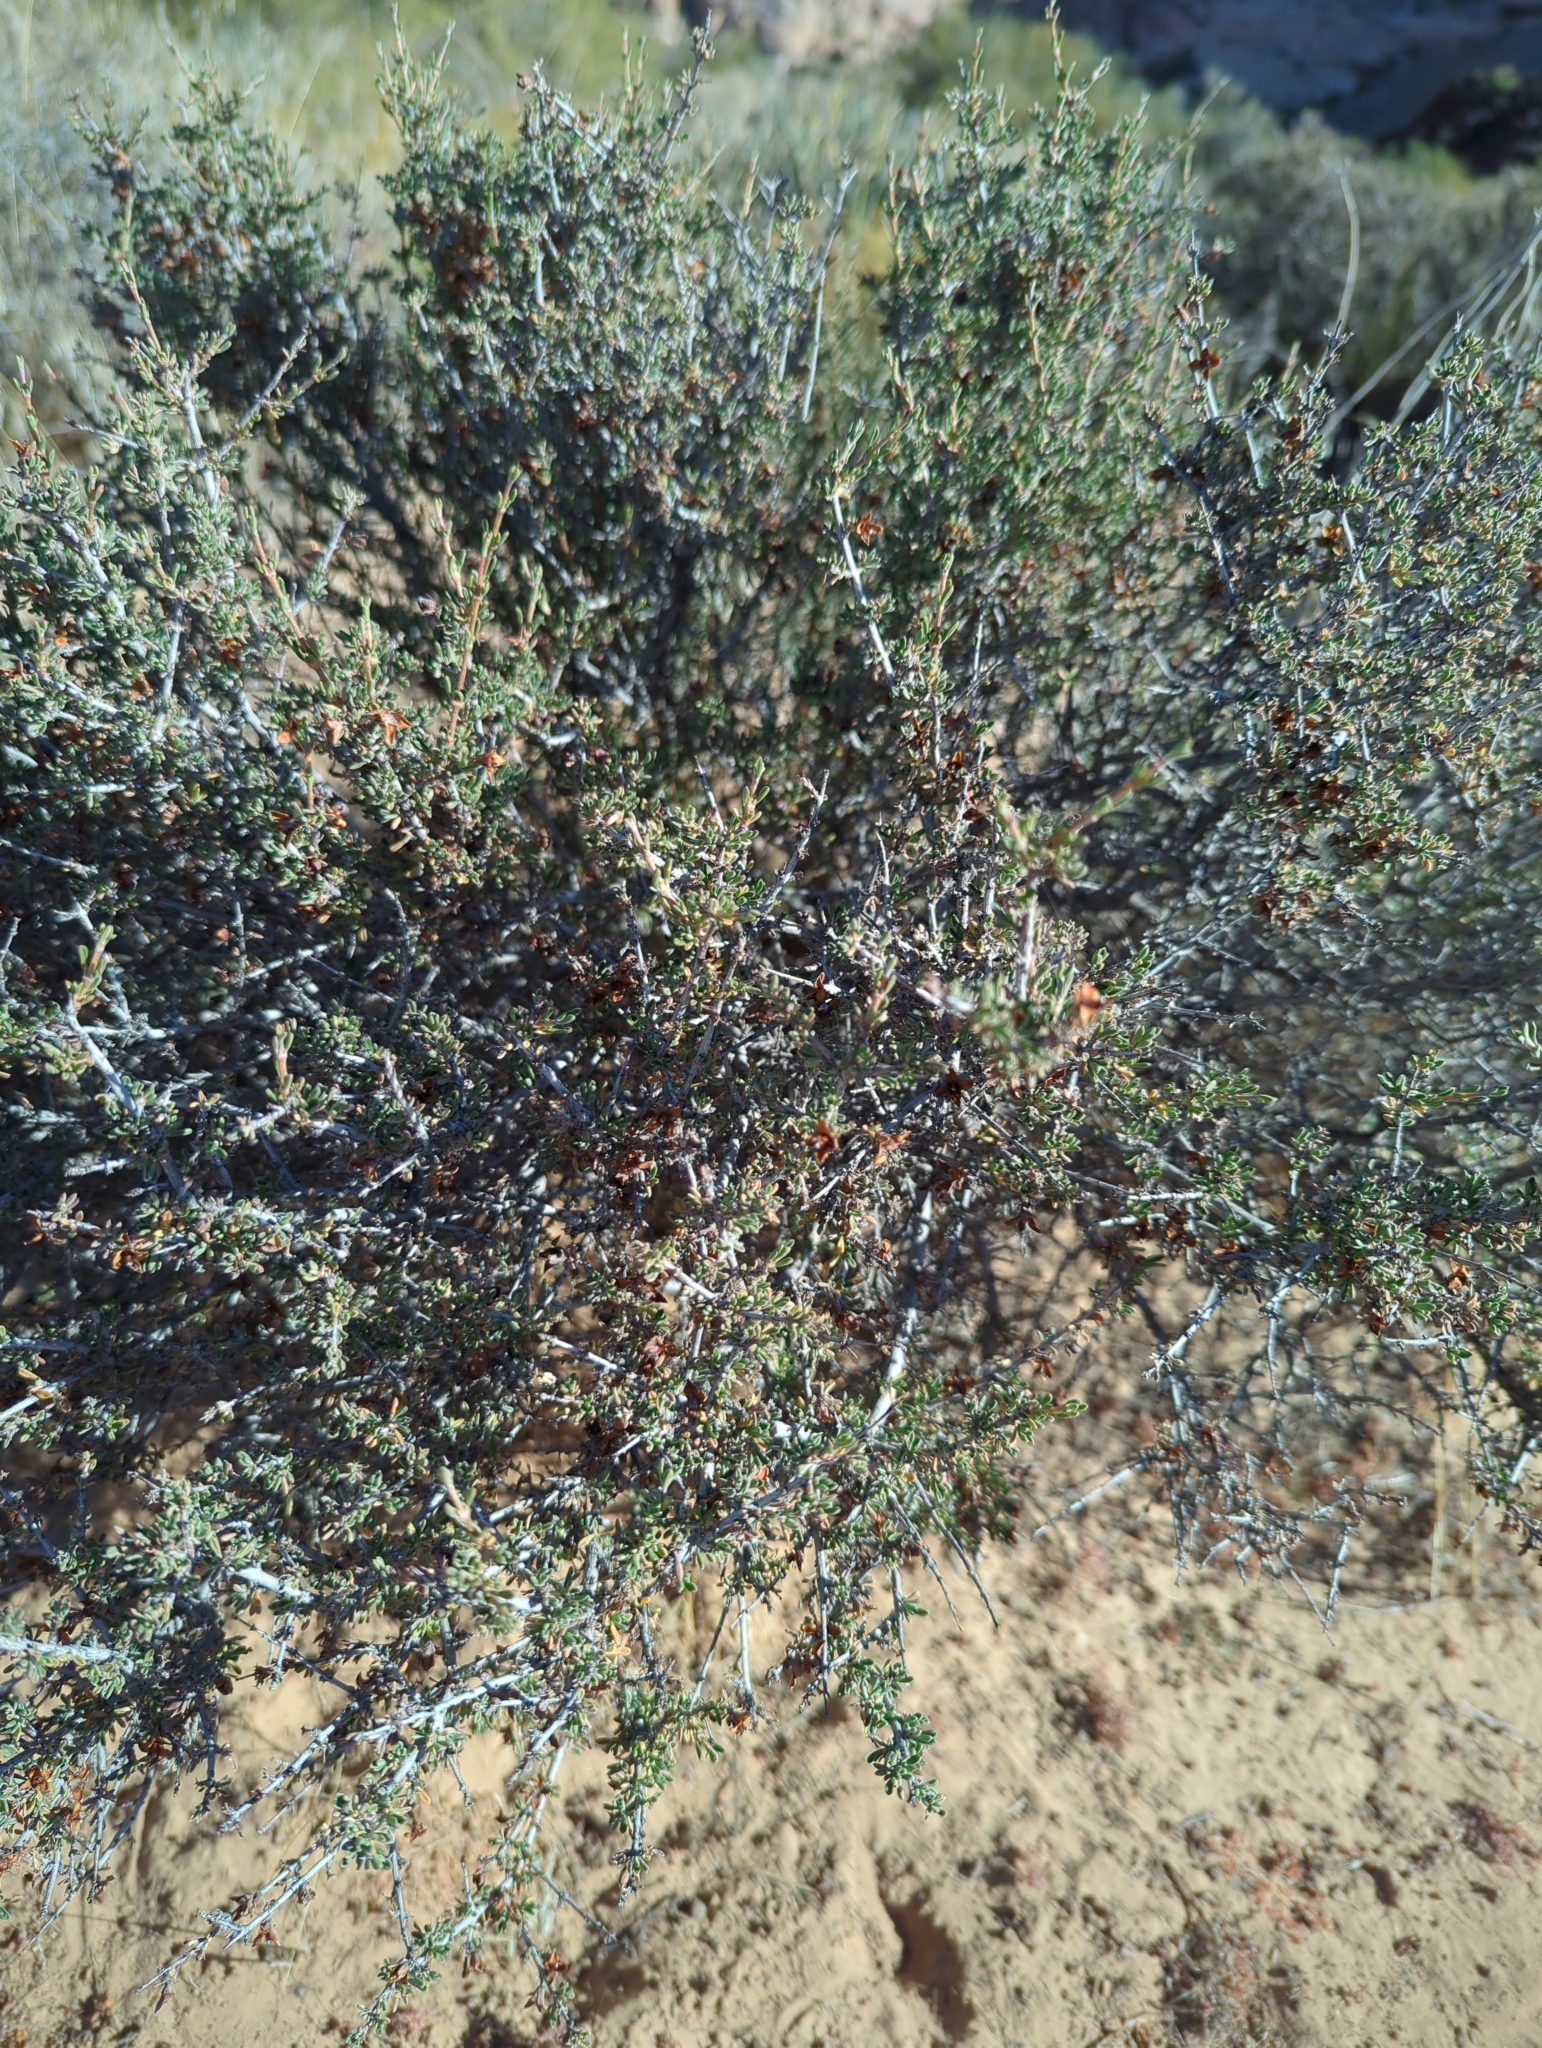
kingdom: Plantae
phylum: Tracheophyta
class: Magnoliopsida
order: Rosales
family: Rosaceae
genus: Coleogyne
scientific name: Coleogyne ramosissima
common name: Blackbrush
